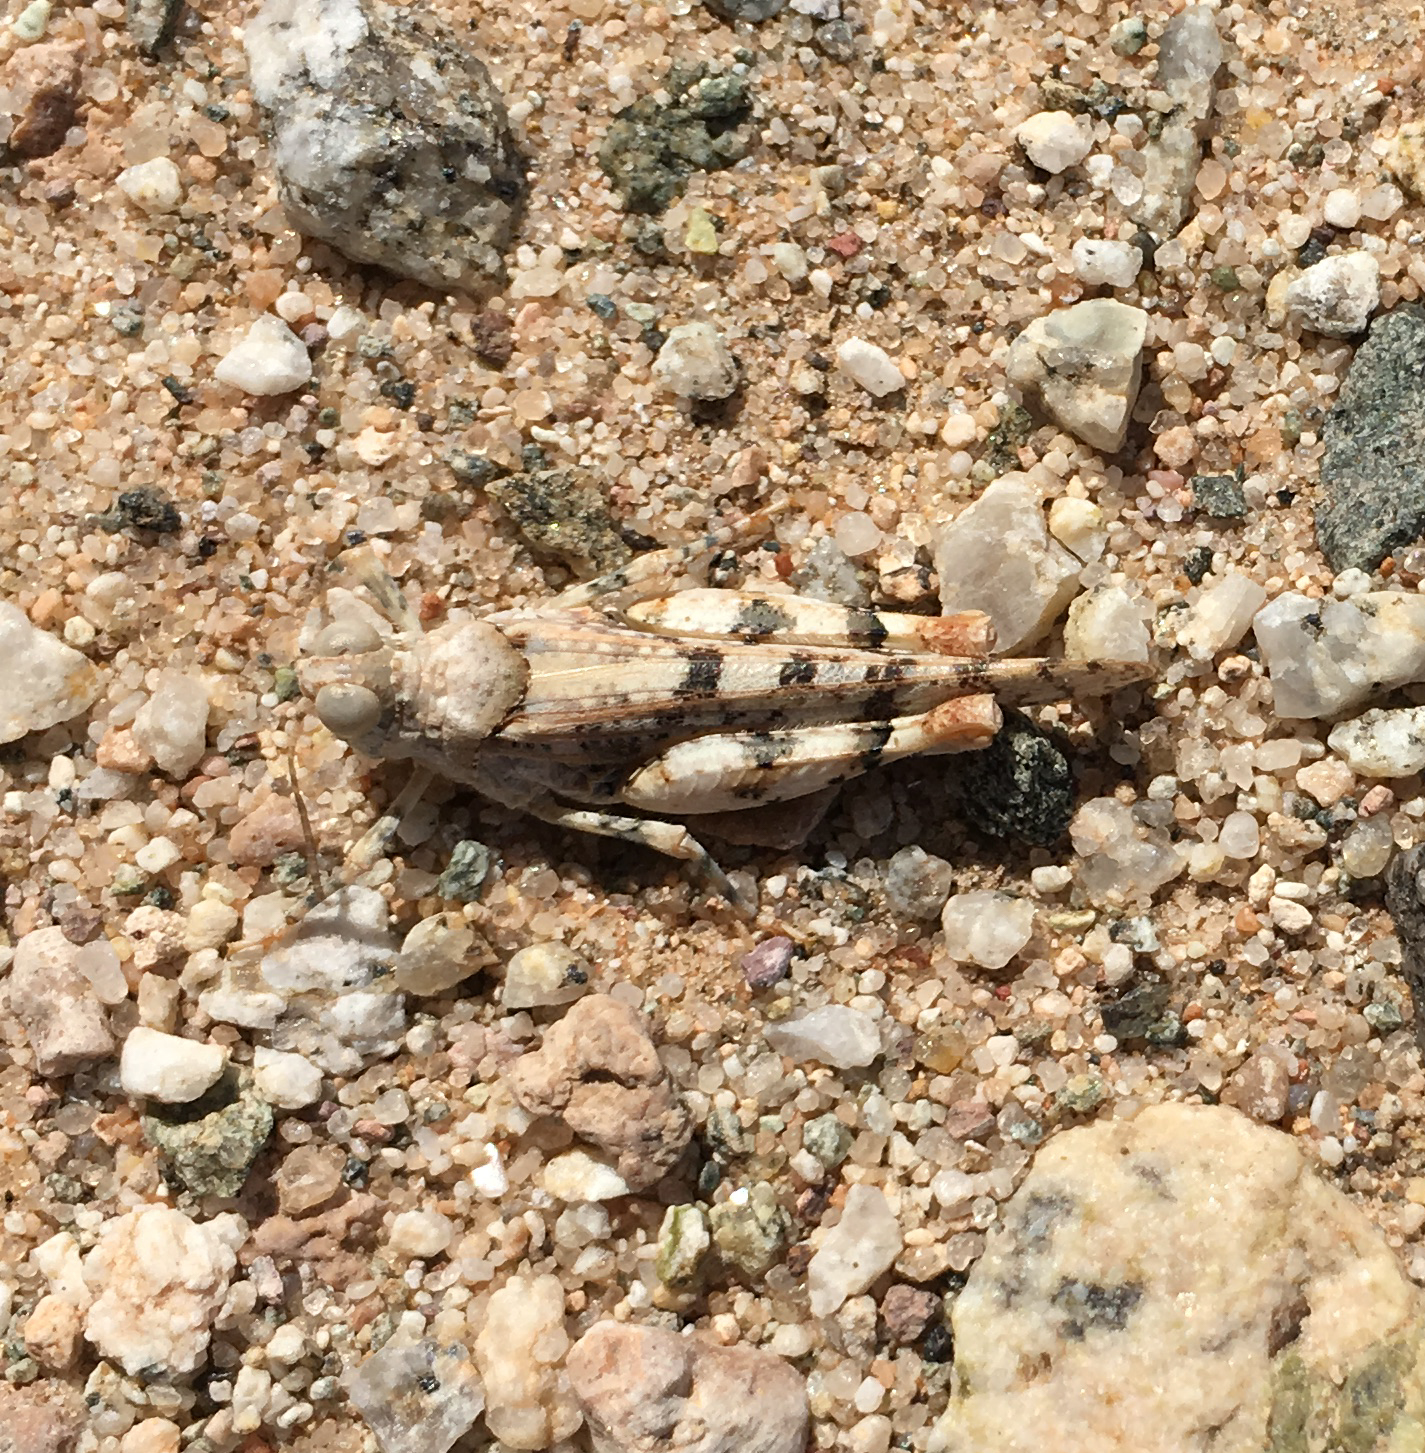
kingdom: Animalia
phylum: Arthropoda
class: Insecta
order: Orthoptera
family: Acrididae
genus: Cibolacris
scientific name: Cibolacris parviceps
